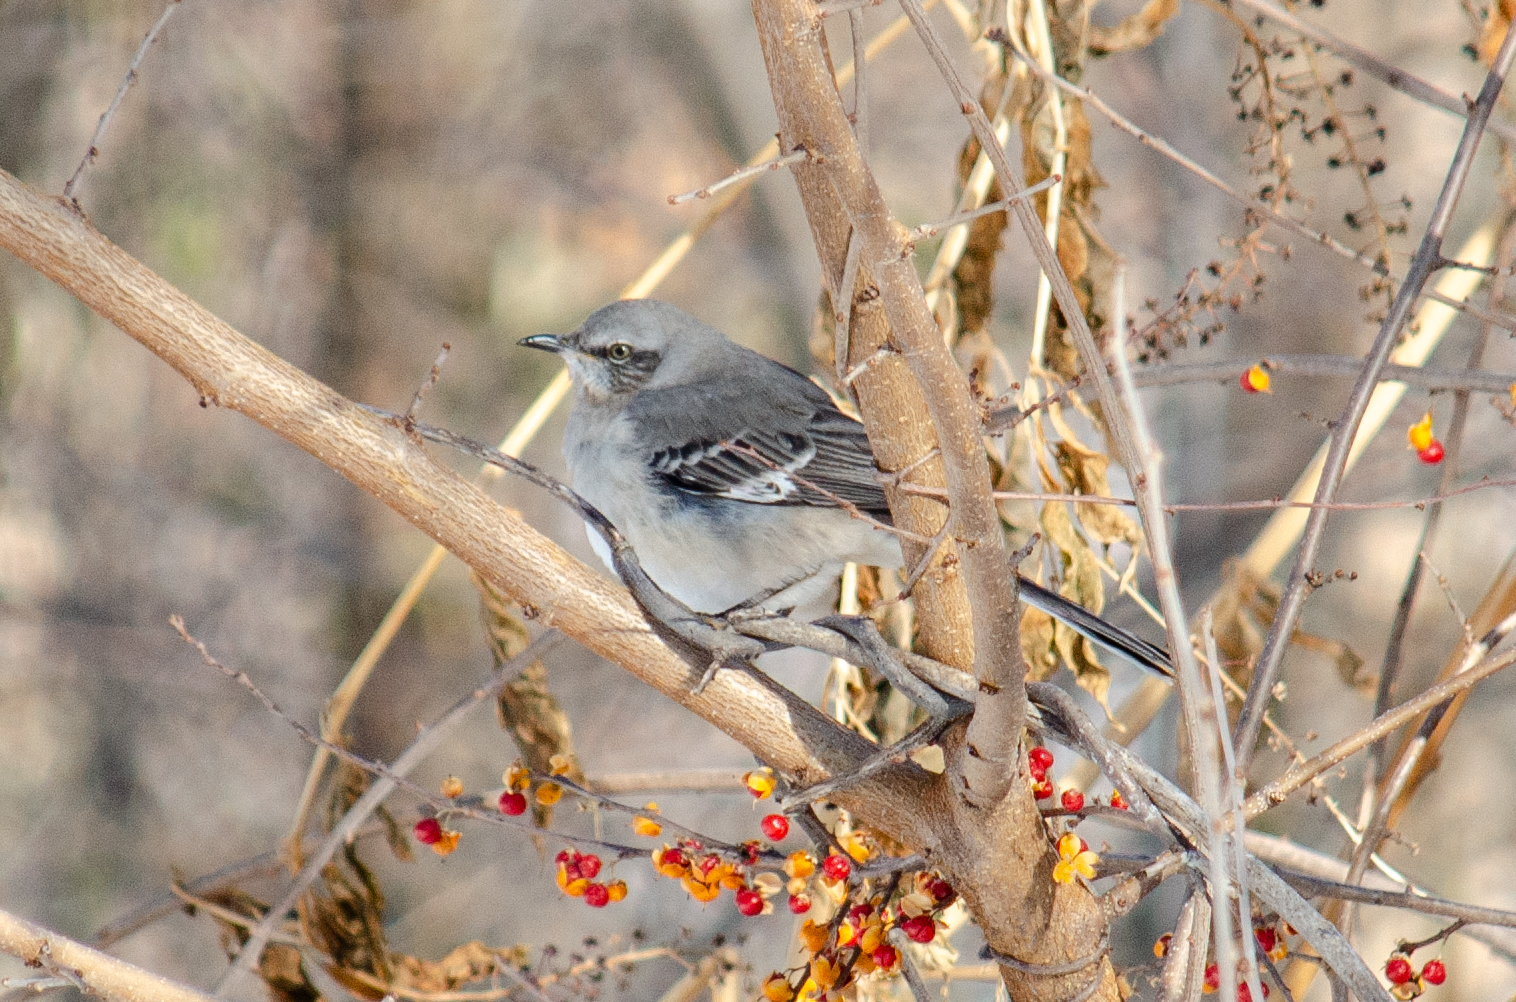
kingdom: Animalia
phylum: Chordata
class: Aves
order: Passeriformes
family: Mimidae
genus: Mimus
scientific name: Mimus polyglottos
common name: Northern mockingbird
